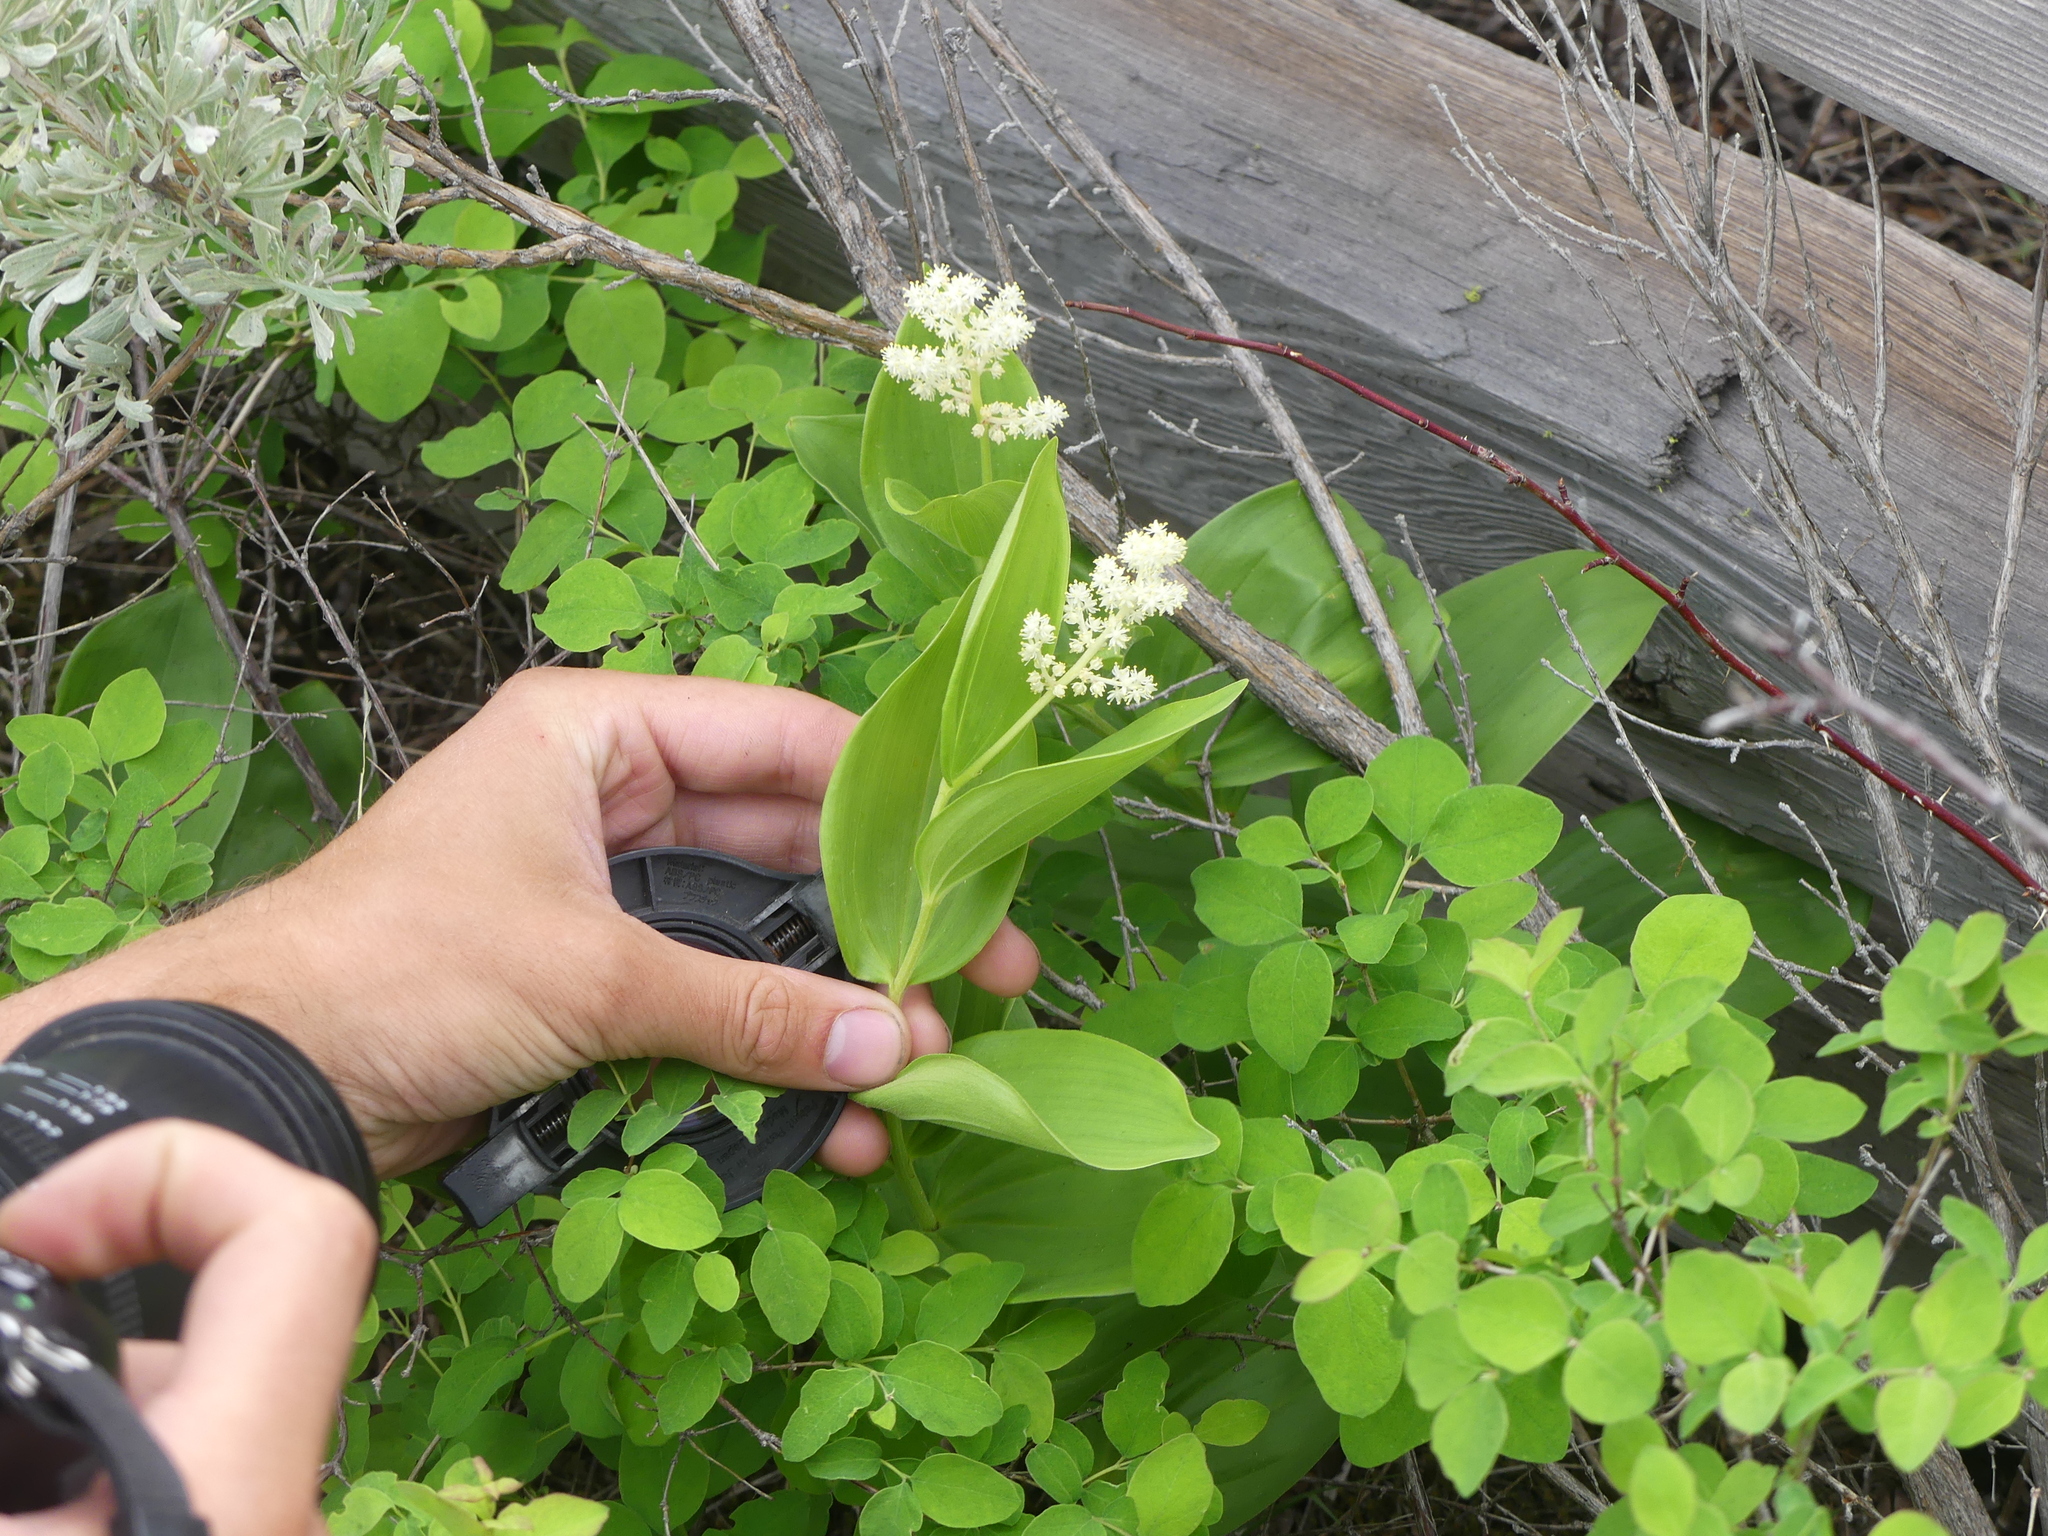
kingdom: Plantae
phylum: Tracheophyta
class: Liliopsida
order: Asparagales
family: Asparagaceae
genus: Maianthemum
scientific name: Maianthemum racemosum
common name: False spikenard
